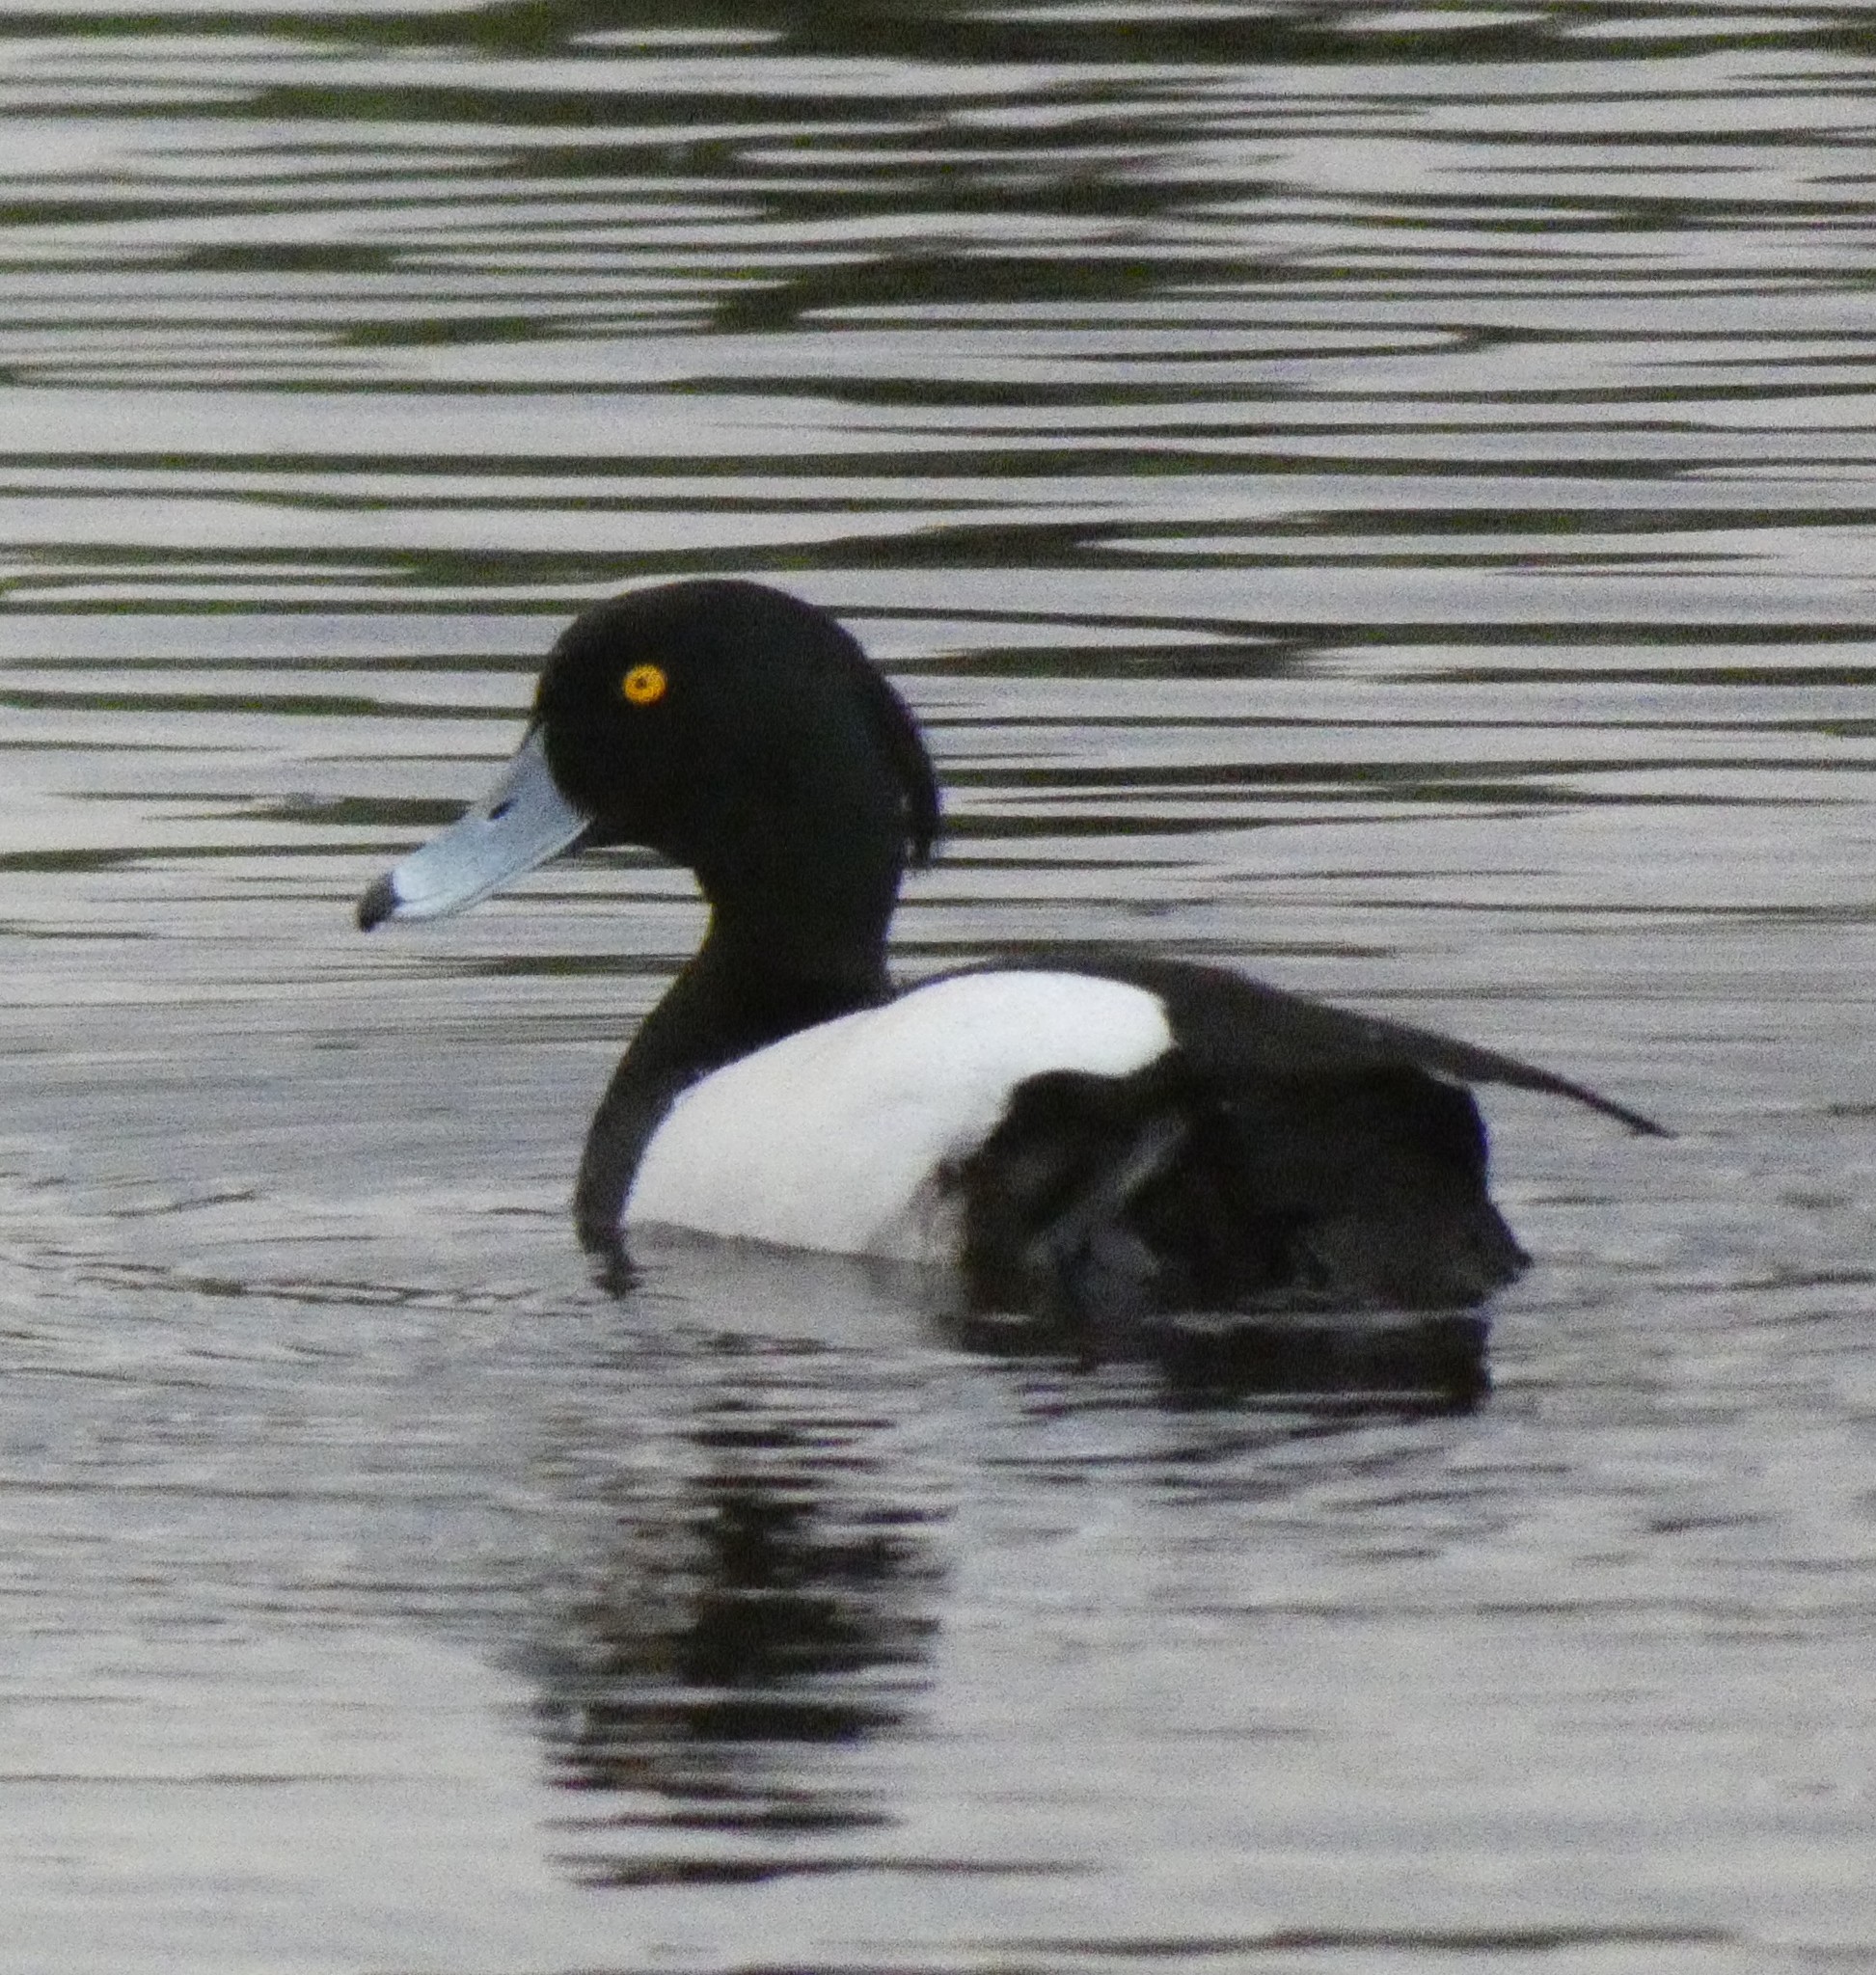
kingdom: Animalia
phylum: Chordata
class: Aves
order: Anseriformes
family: Anatidae
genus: Aythya
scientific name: Aythya fuligula
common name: Tufted duck
